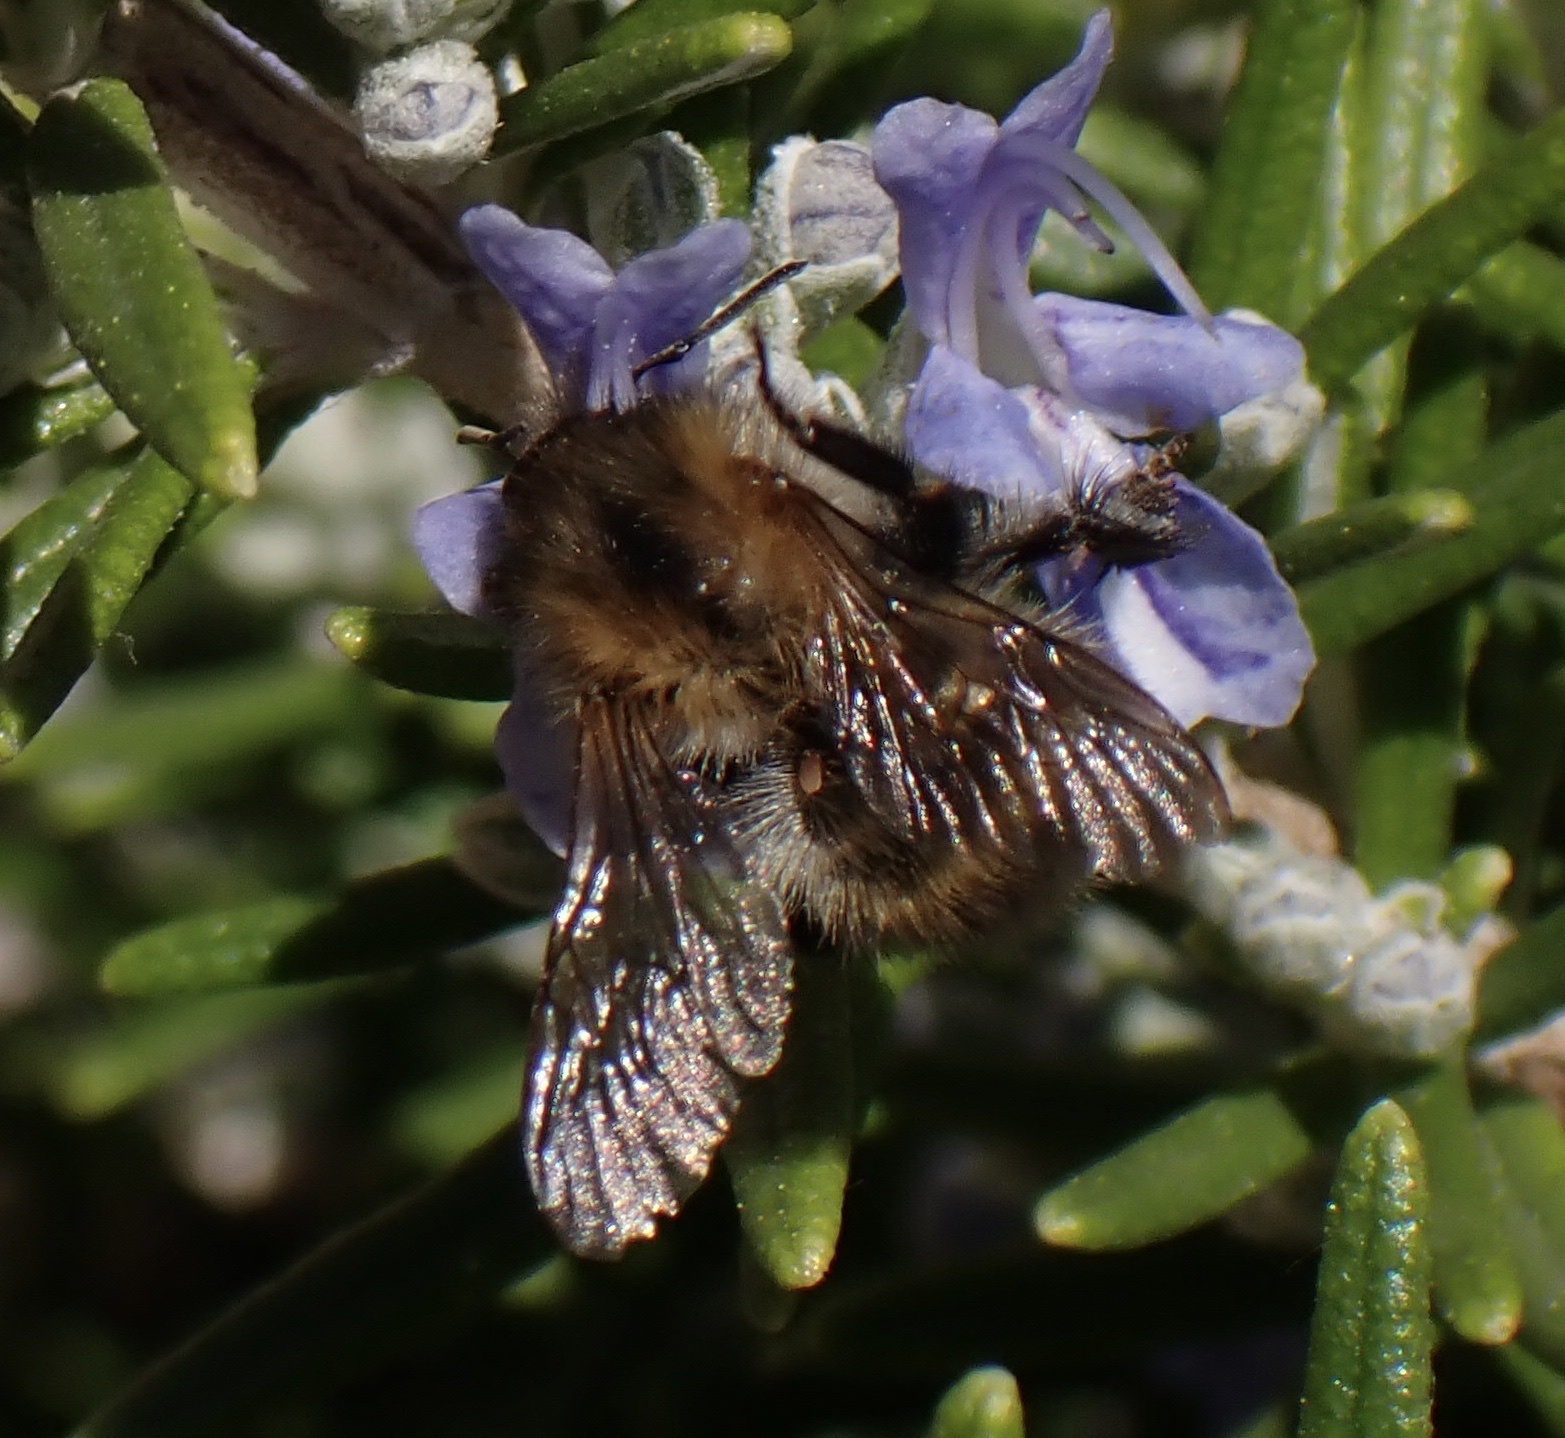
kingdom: Animalia
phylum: Arthropoda
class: Insecta
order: Hymenoptera
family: Apidae
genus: Bombus
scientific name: Bombus pascuorum
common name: Common carder bee
